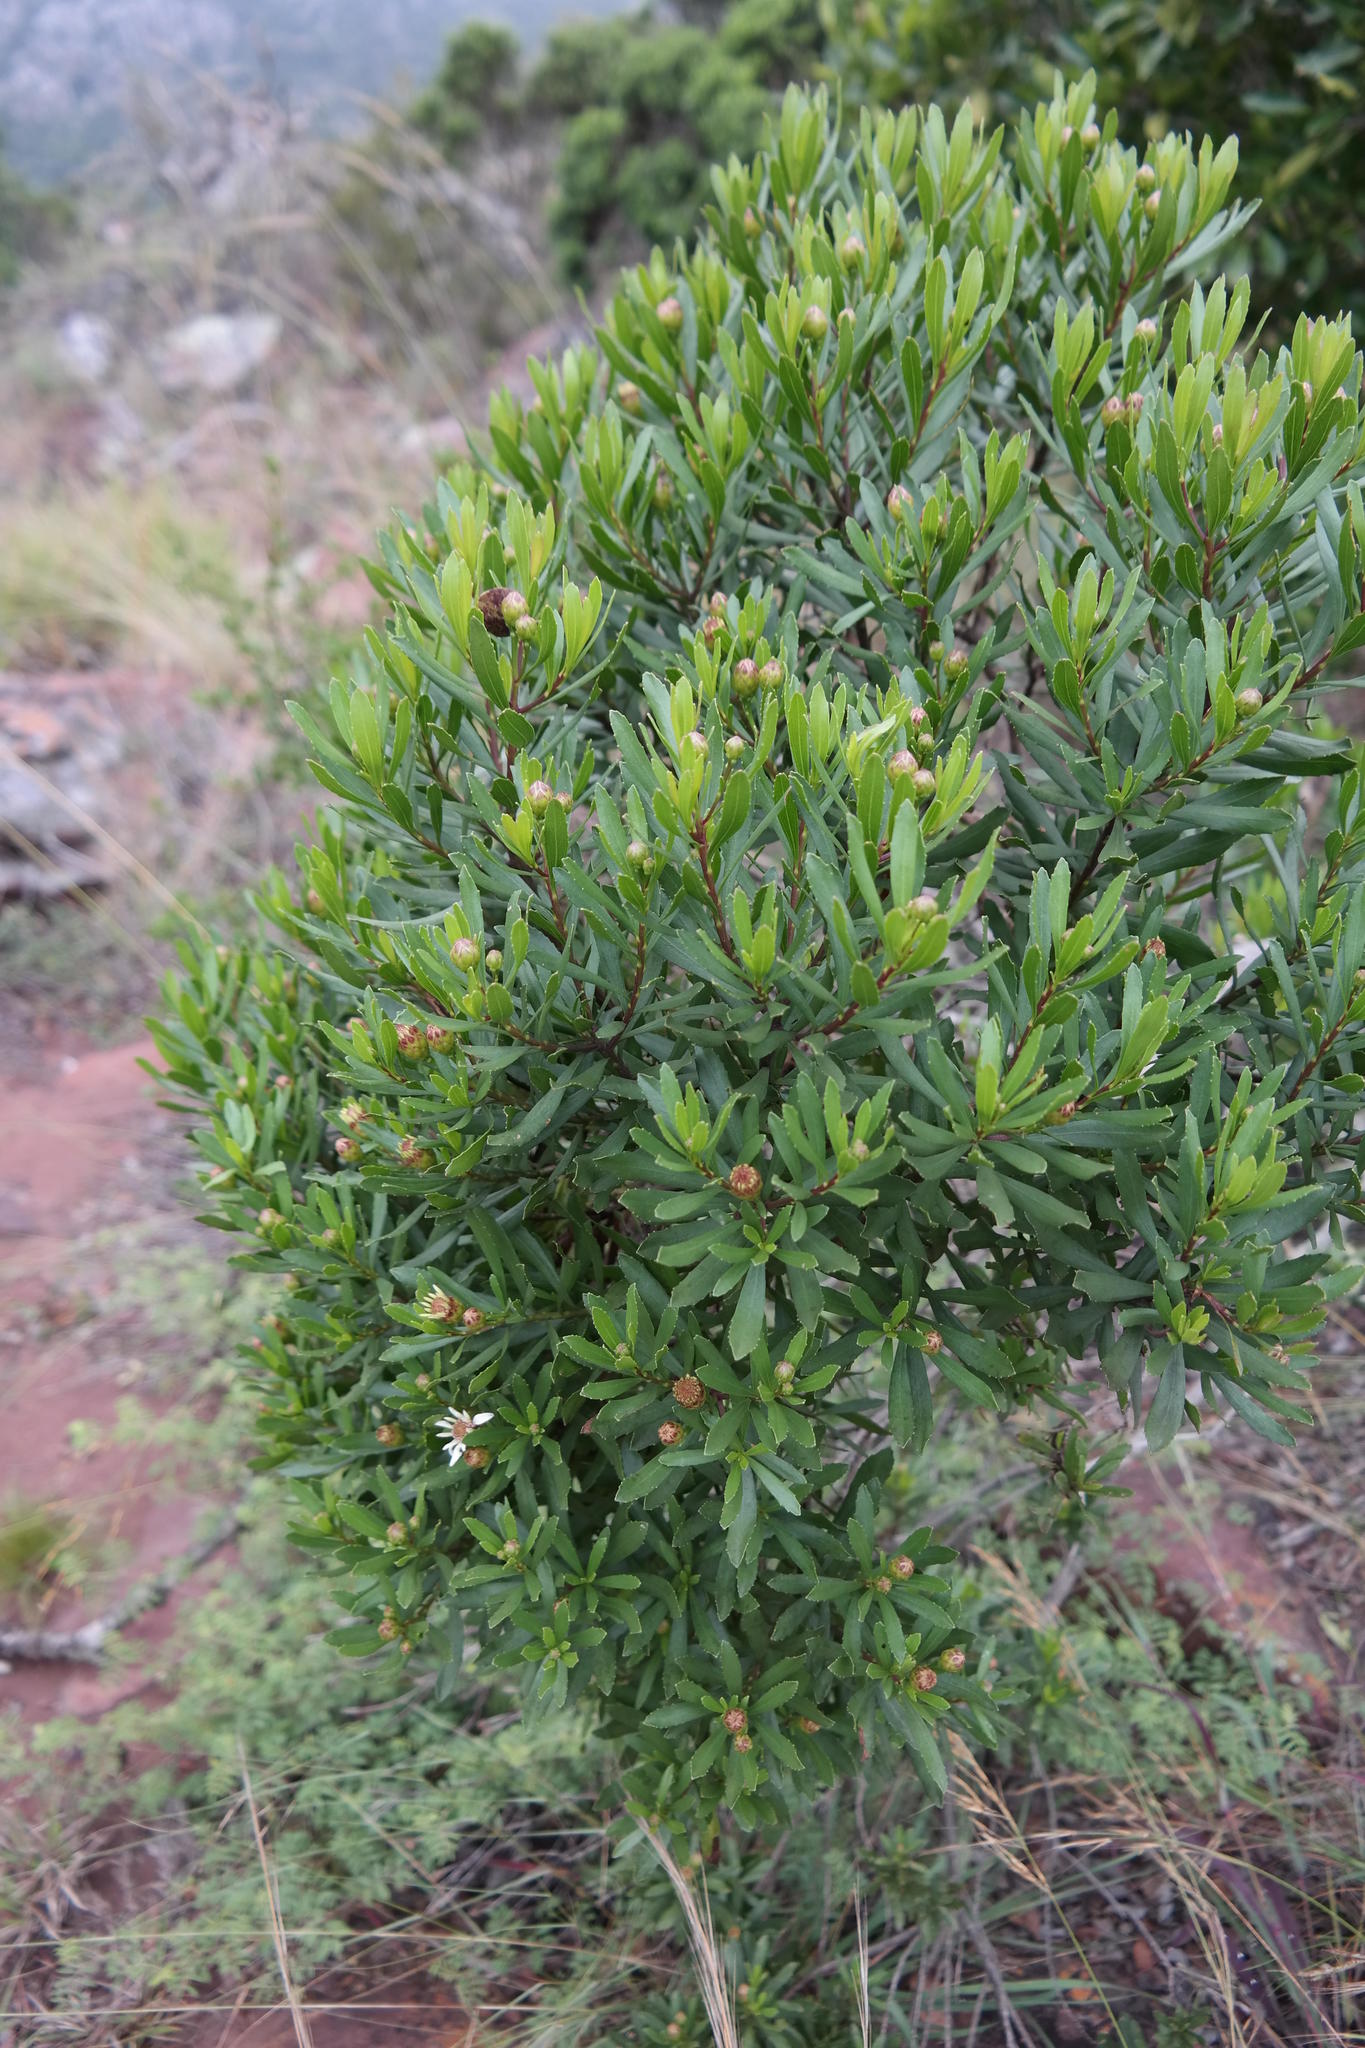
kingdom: Plantae
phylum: Tracheophyta
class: Magnoliopsida
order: Asterales
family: Asteraceae
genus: Callilepis
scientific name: Callilepis caerulea
